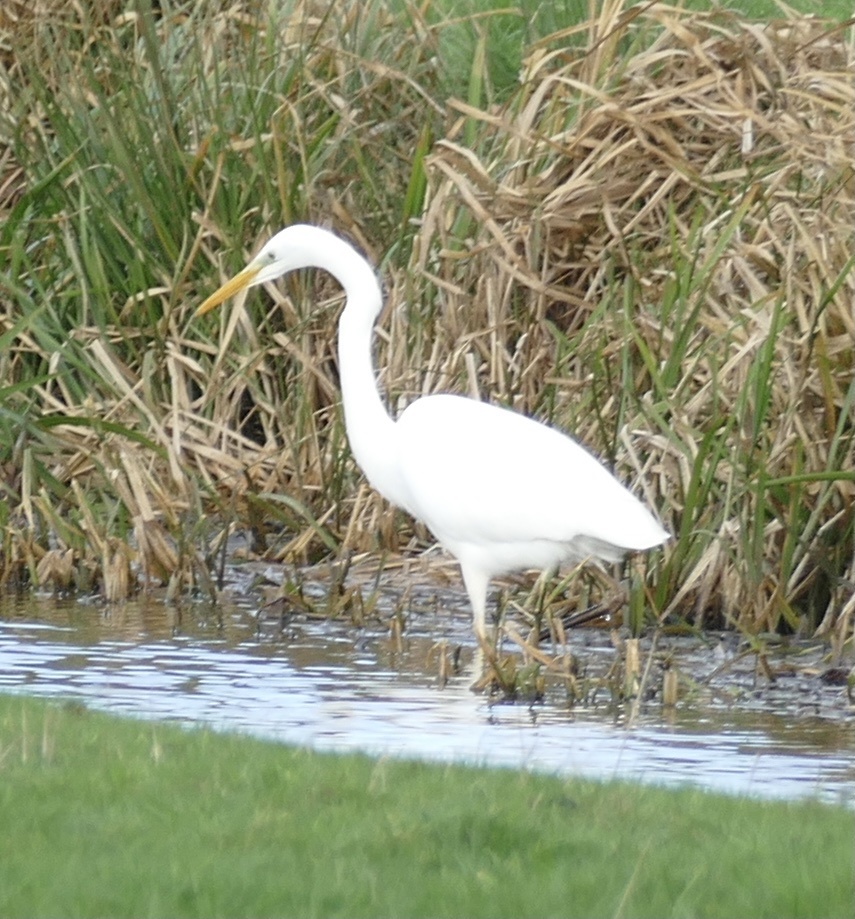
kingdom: Animalia
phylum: Chordata
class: Aves
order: Pelecaniformes
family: Ardeidae
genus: Ardea
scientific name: Ardea alba
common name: Great egret
